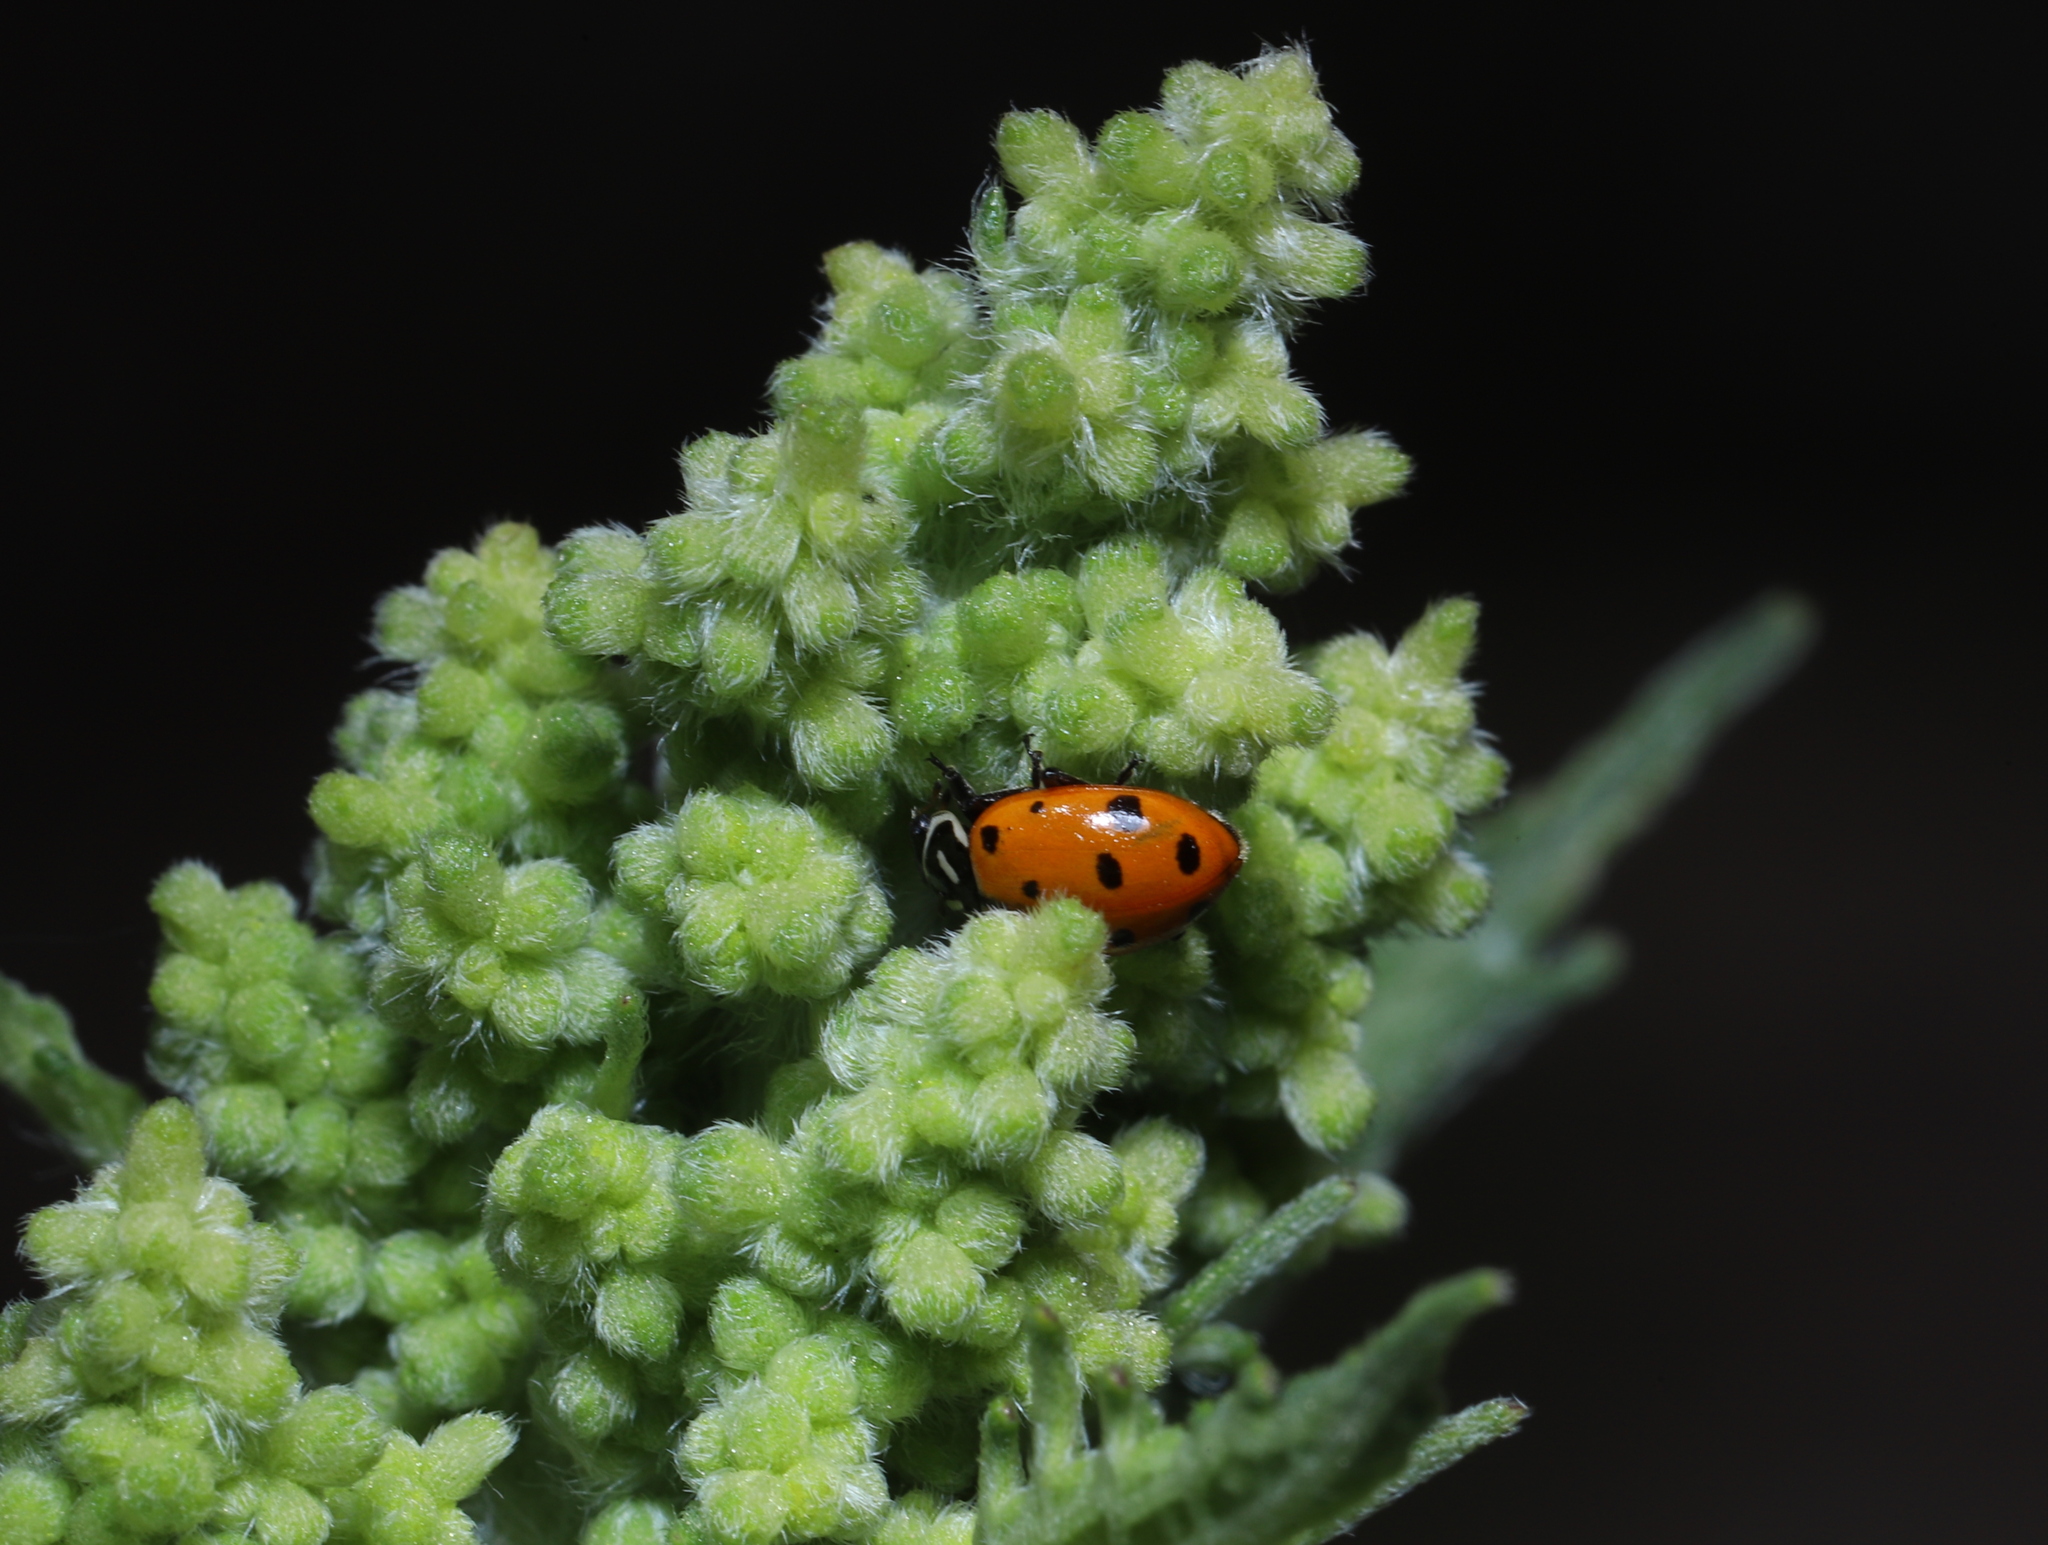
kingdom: Animalia
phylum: Arthropoda
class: Insecta
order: Coleoptera
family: Coccinellidae
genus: Coccinella
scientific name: Coccinella septempunctata
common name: Sevenspotted lady beetle
